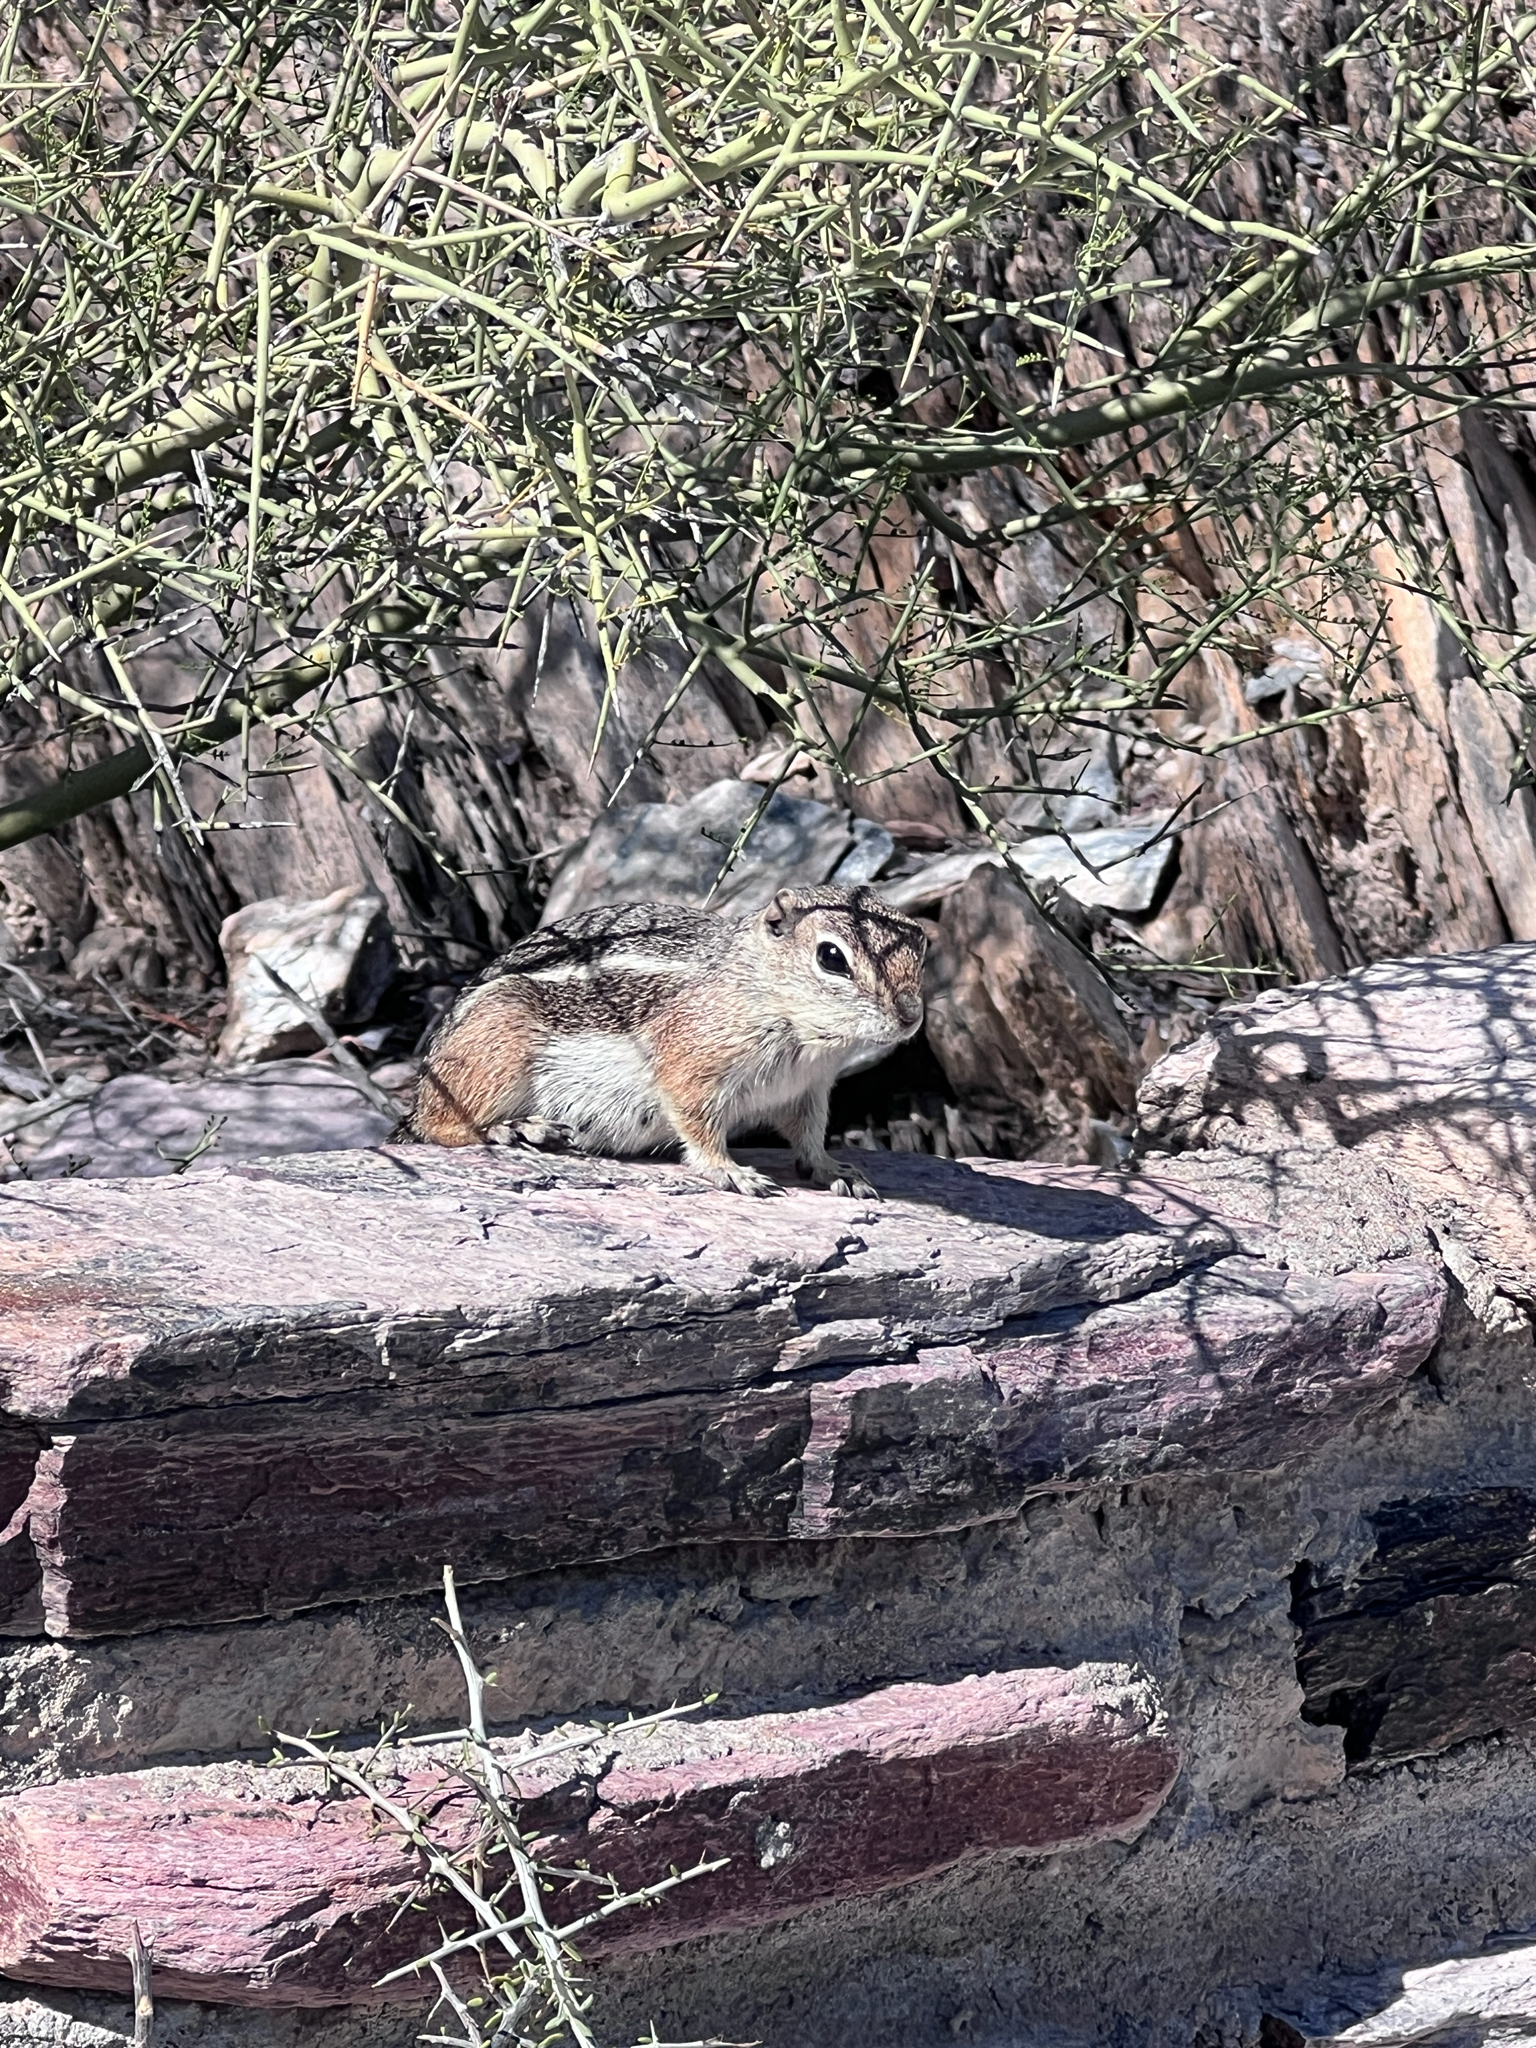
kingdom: Animalia
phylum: Chordata
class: Mammalia
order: Rodentia
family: Sciuridae
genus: Ammospermophilus
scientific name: Ammospermophilus harrisii
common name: Harris's antelope squirrel
